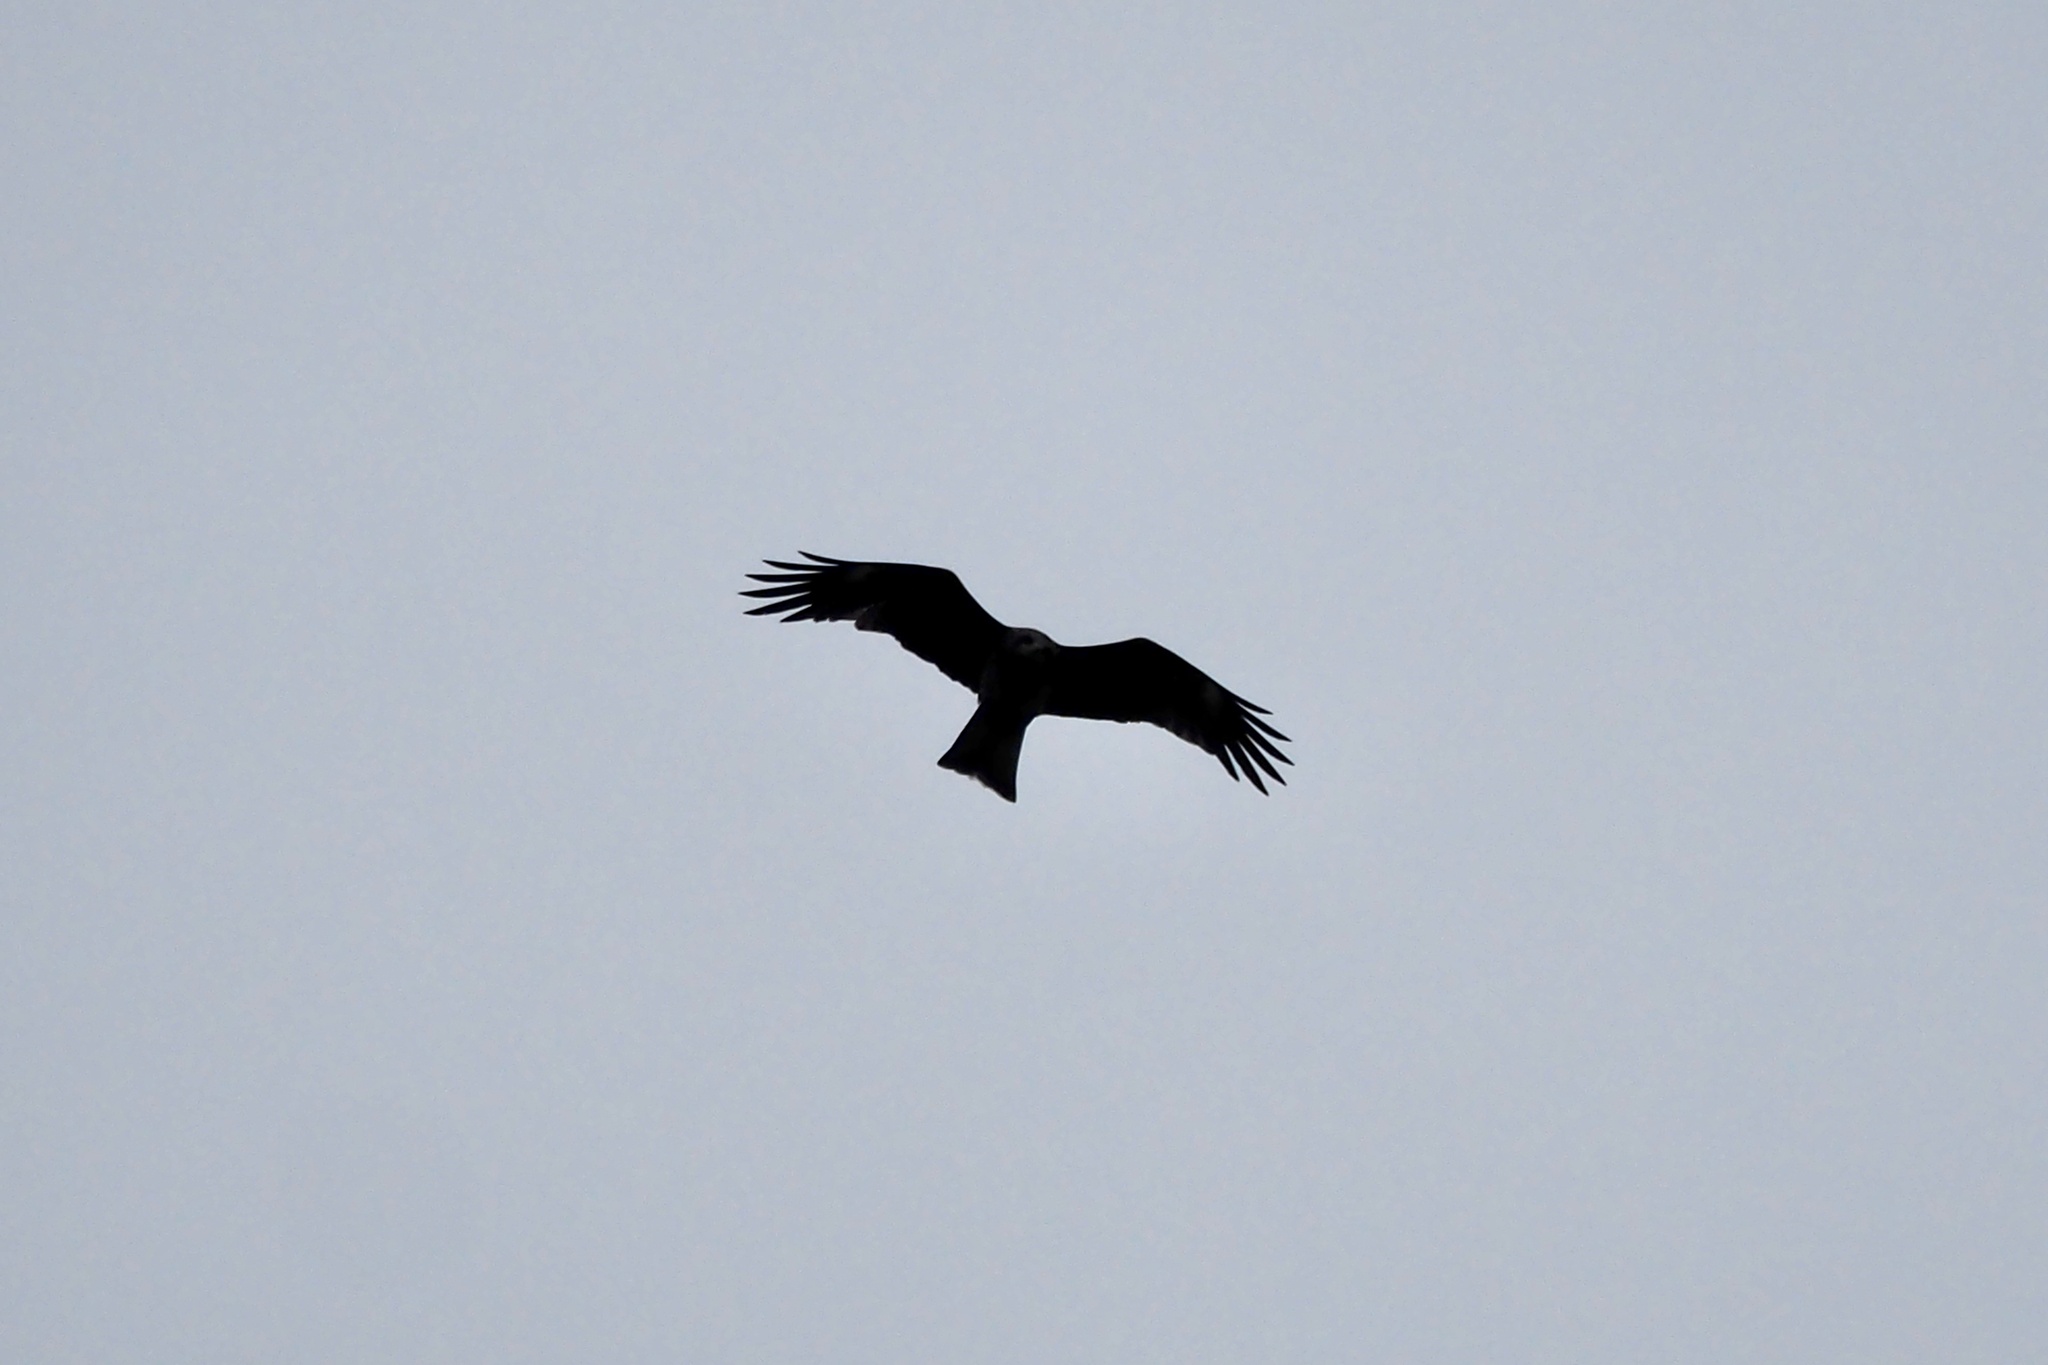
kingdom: Animalia
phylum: Chordata
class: Aves
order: Accipitriformes
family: Accipitridae
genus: Milvus
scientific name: Milvus migrans
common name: Black kite
